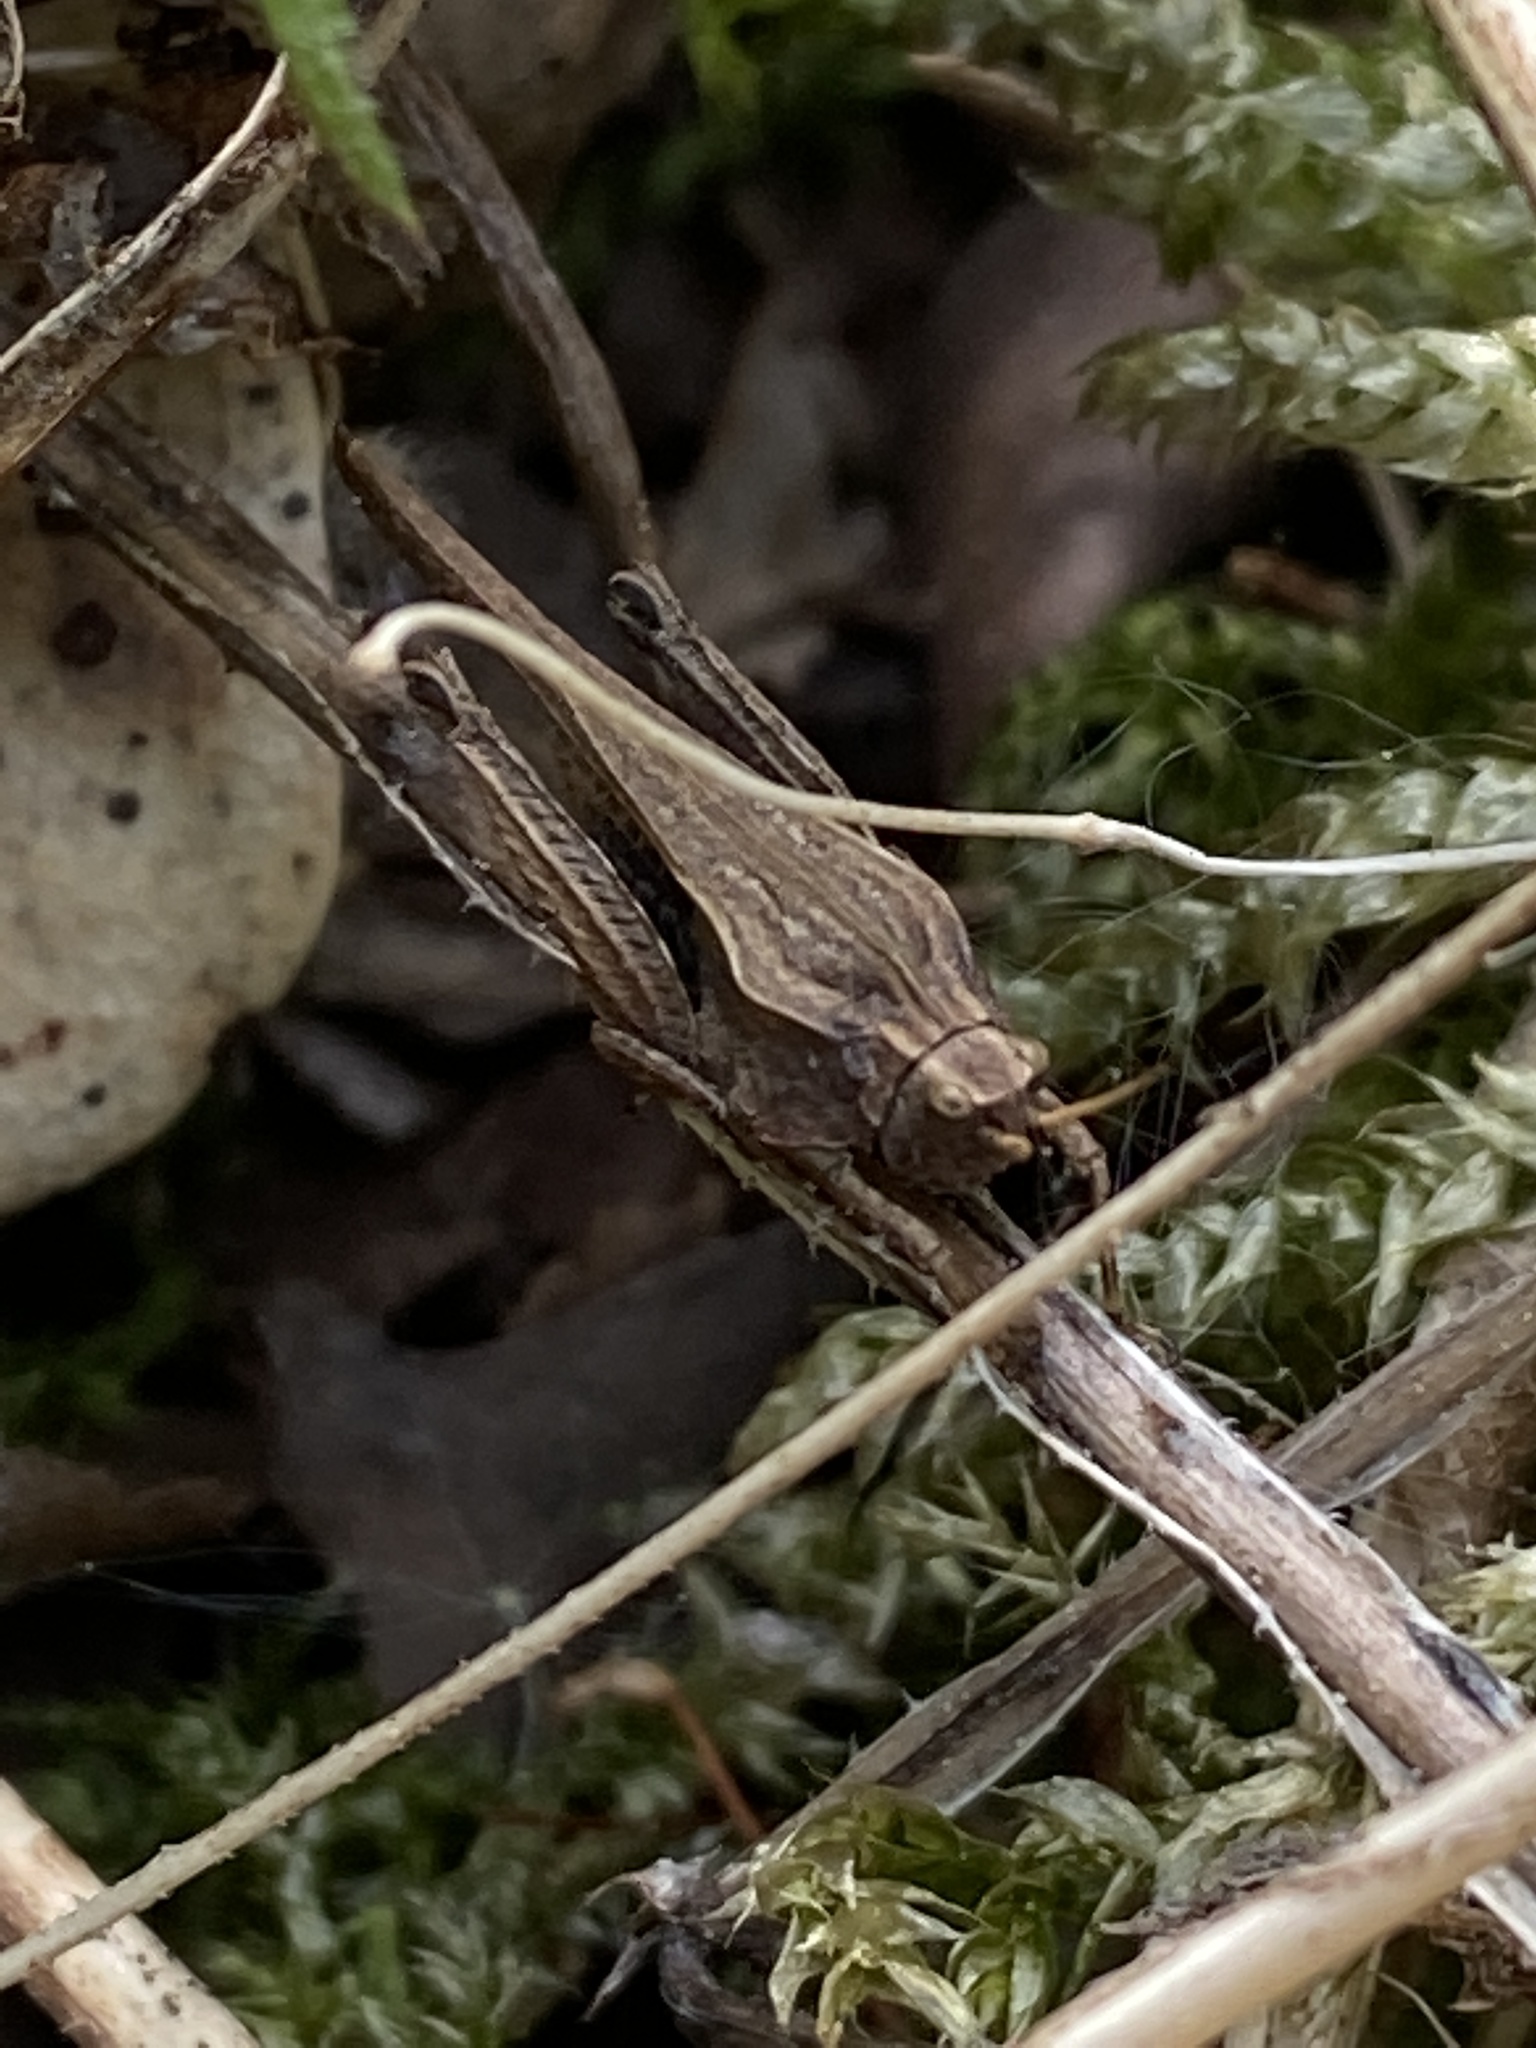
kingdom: Animalia
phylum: Arthropoda
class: Insecta
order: Orthoptera
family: Tetrigidae
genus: Tetrix
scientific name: Tetrix subulata
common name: Slender ground-hopper
